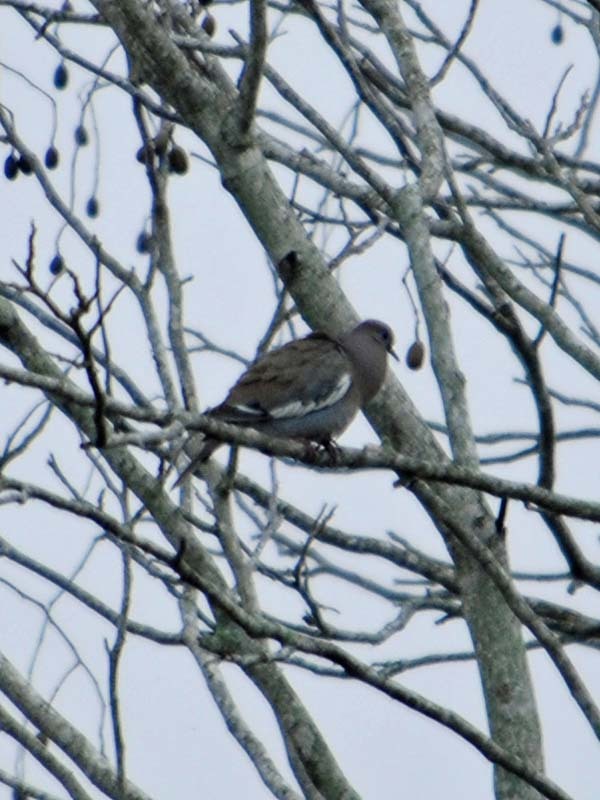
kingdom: Animalia
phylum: Chordata
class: Aves
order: Columbiformes
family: Columbidae
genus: Zenaida
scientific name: Zenaida asiatica
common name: White-winged dove
